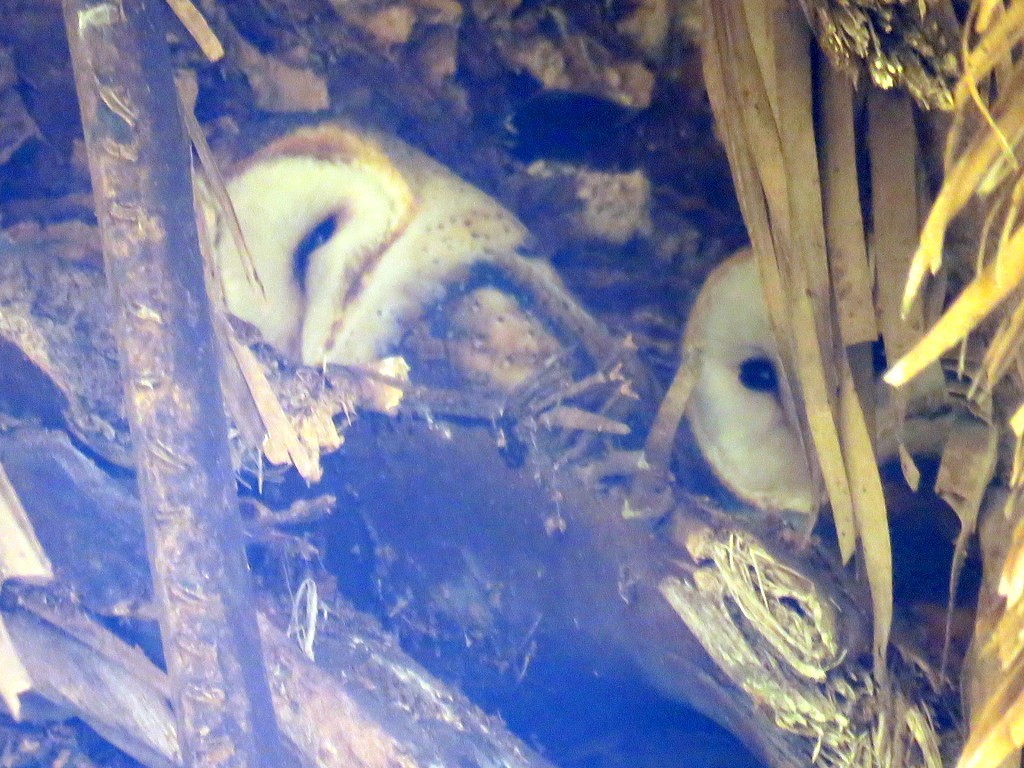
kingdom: Animalia
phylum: Chordata
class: Aves
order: Strigiformes
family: Tytonidae
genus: Tyto
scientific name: Tyto alba
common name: Barn owl
